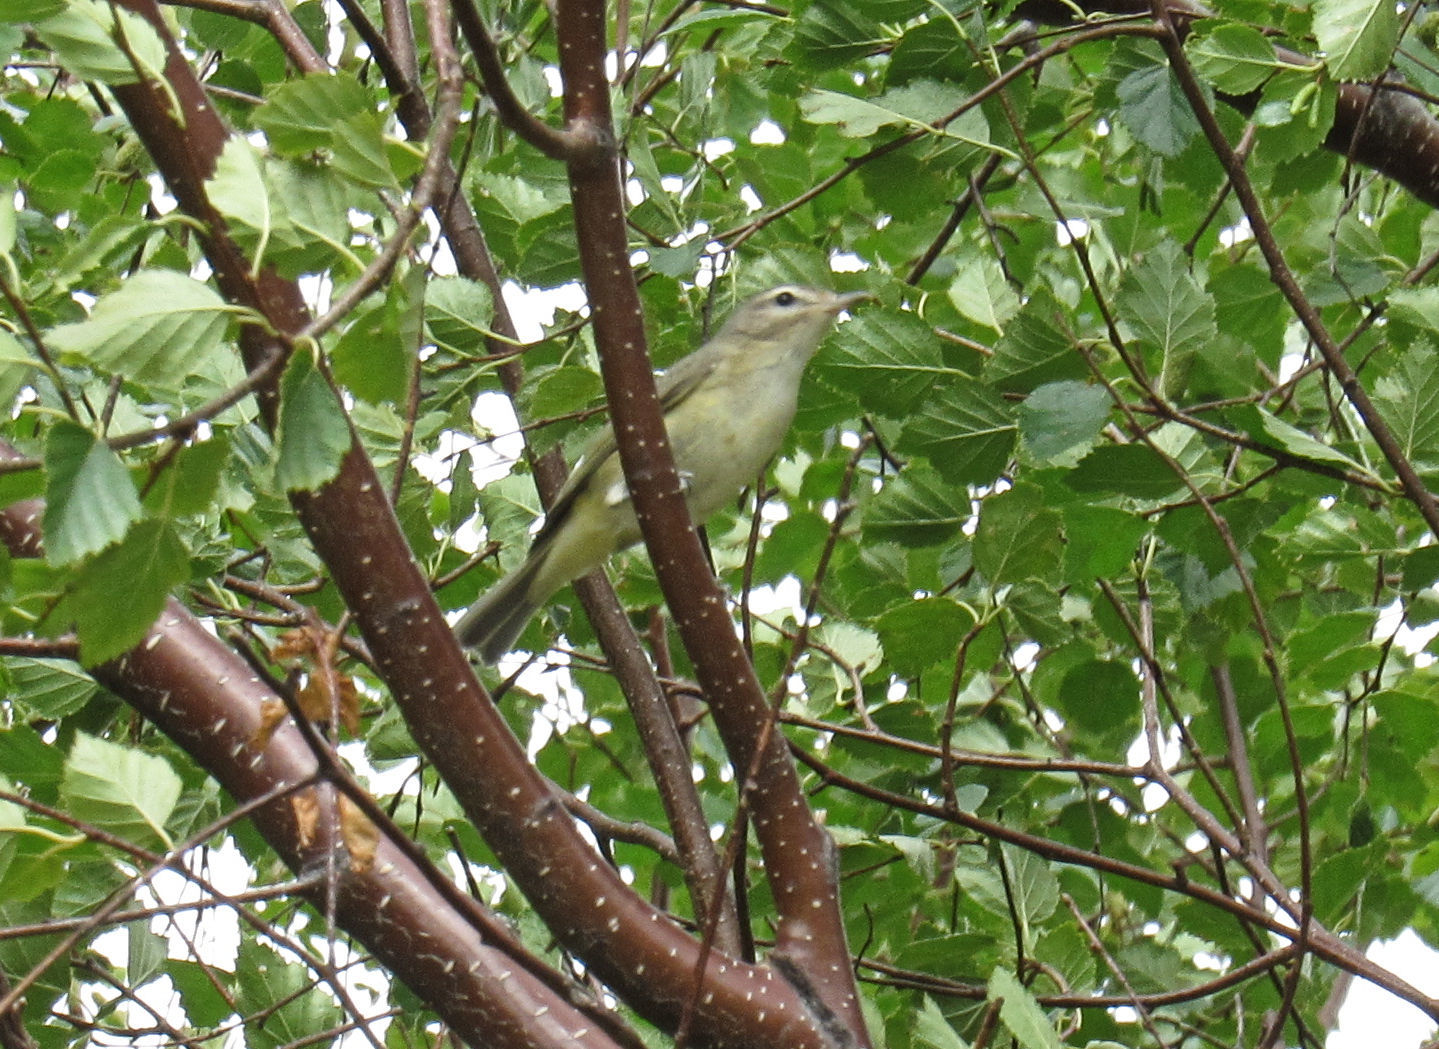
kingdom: Animalia
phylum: Chordata
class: Aves
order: Passeriformes
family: Vireonidae
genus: Vireo
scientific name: Vireo gilvus
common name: Warbling vireo
